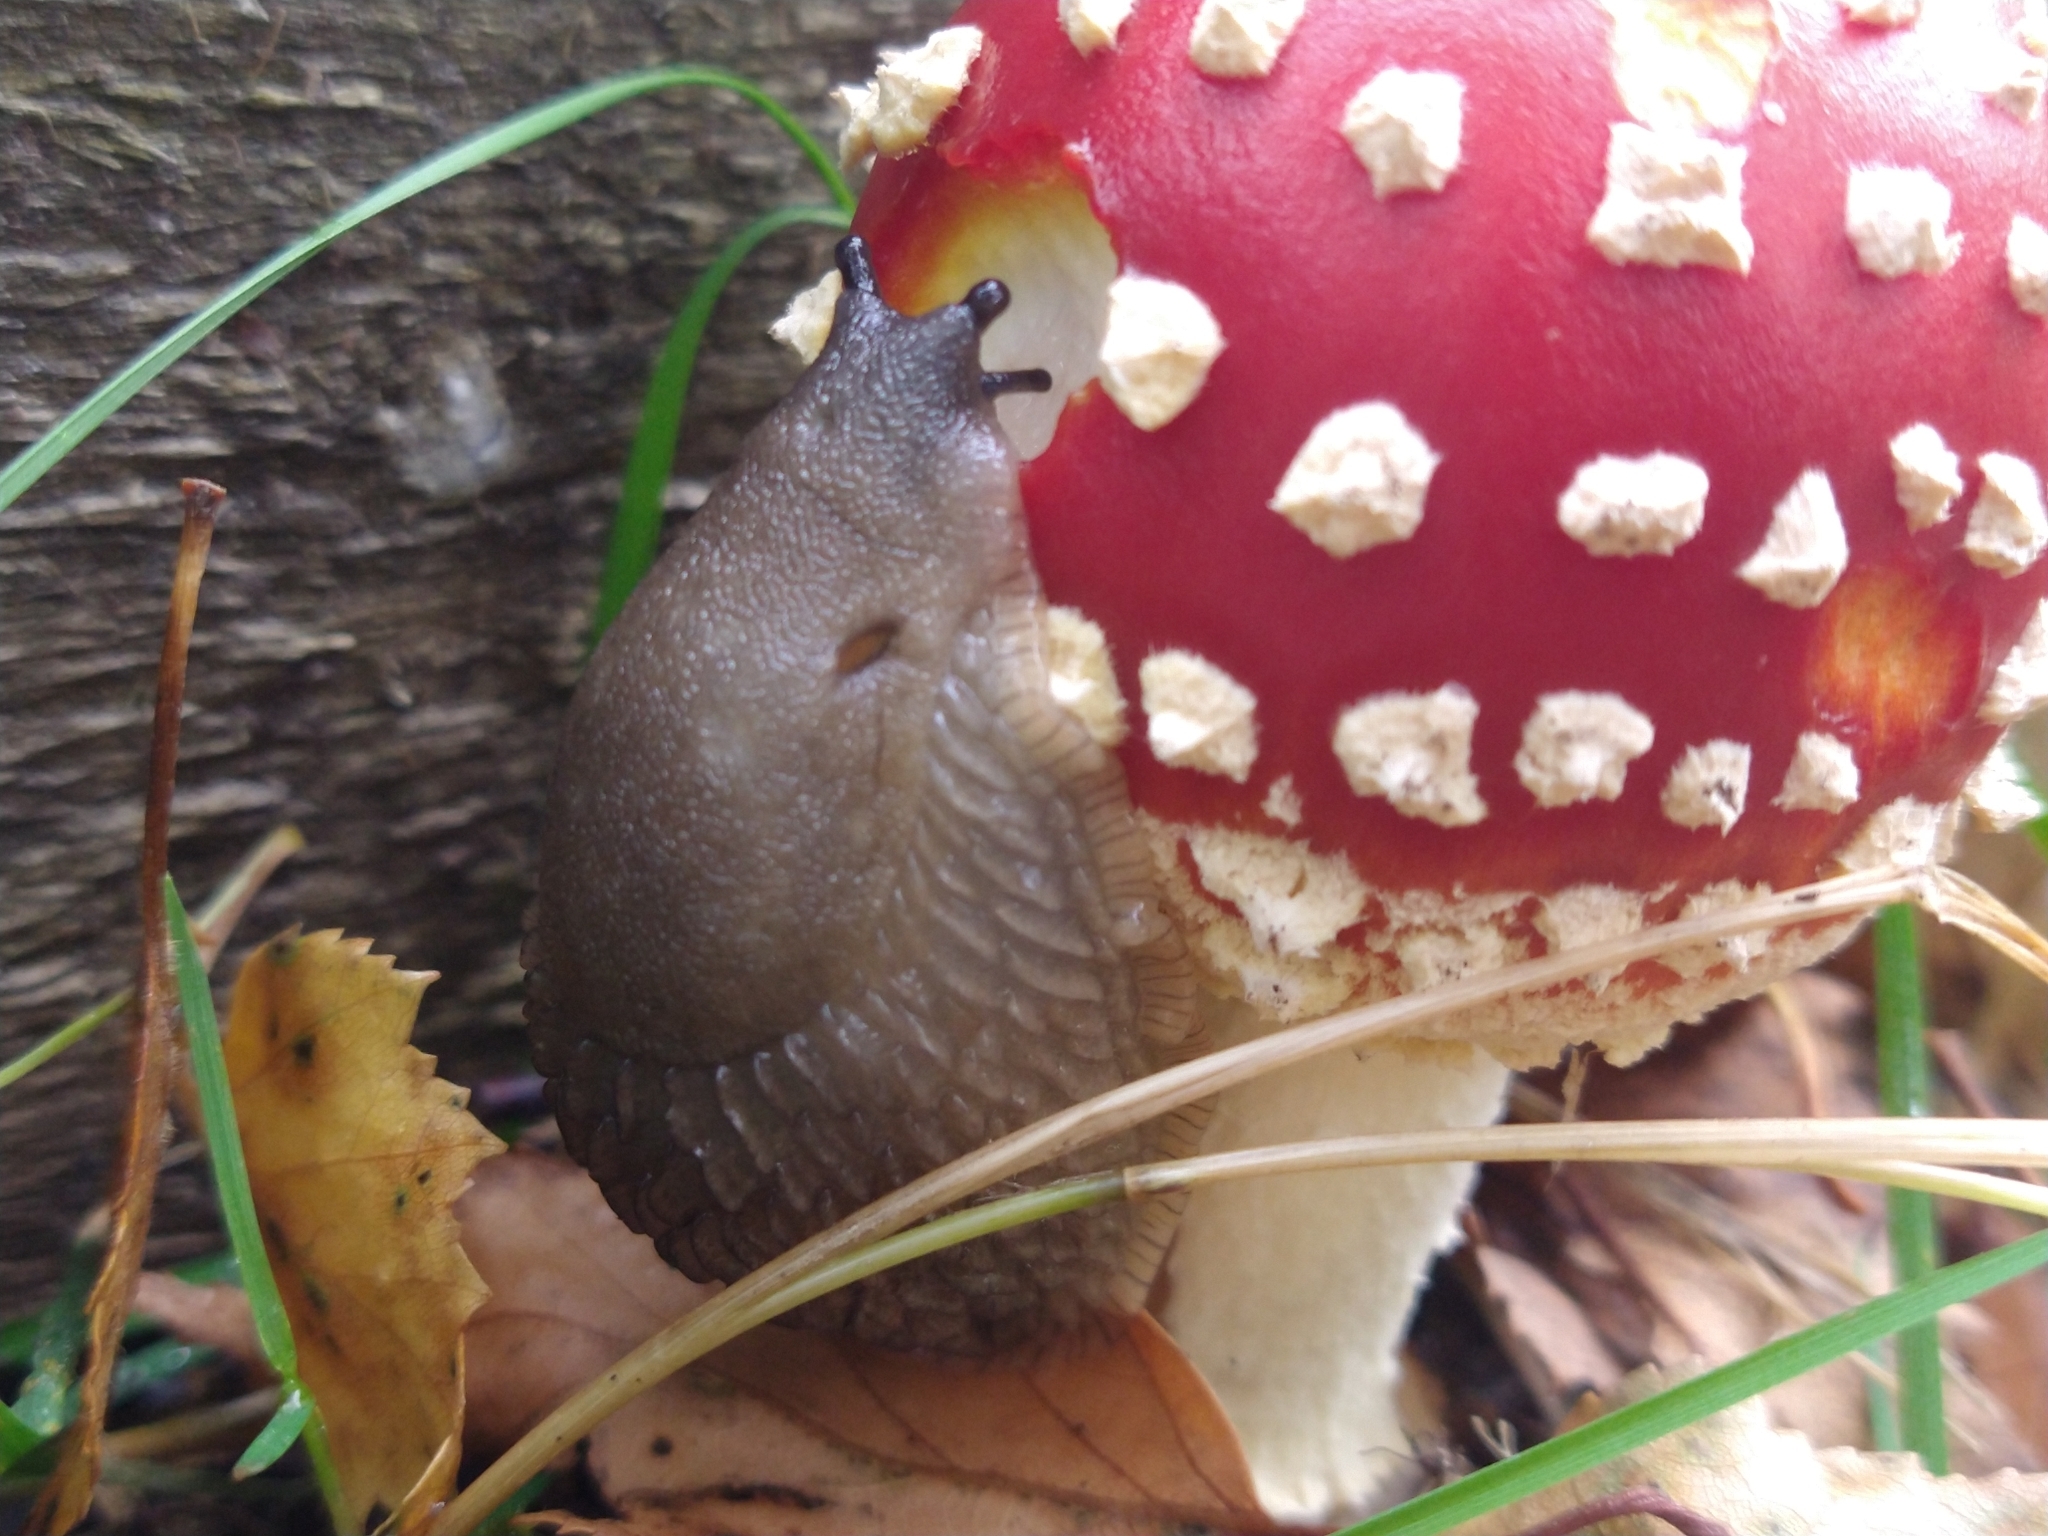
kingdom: Animalia
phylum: Mollusca
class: Gastropoda
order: Stylommatophora
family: Arionidae
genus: Arion
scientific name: Arion
